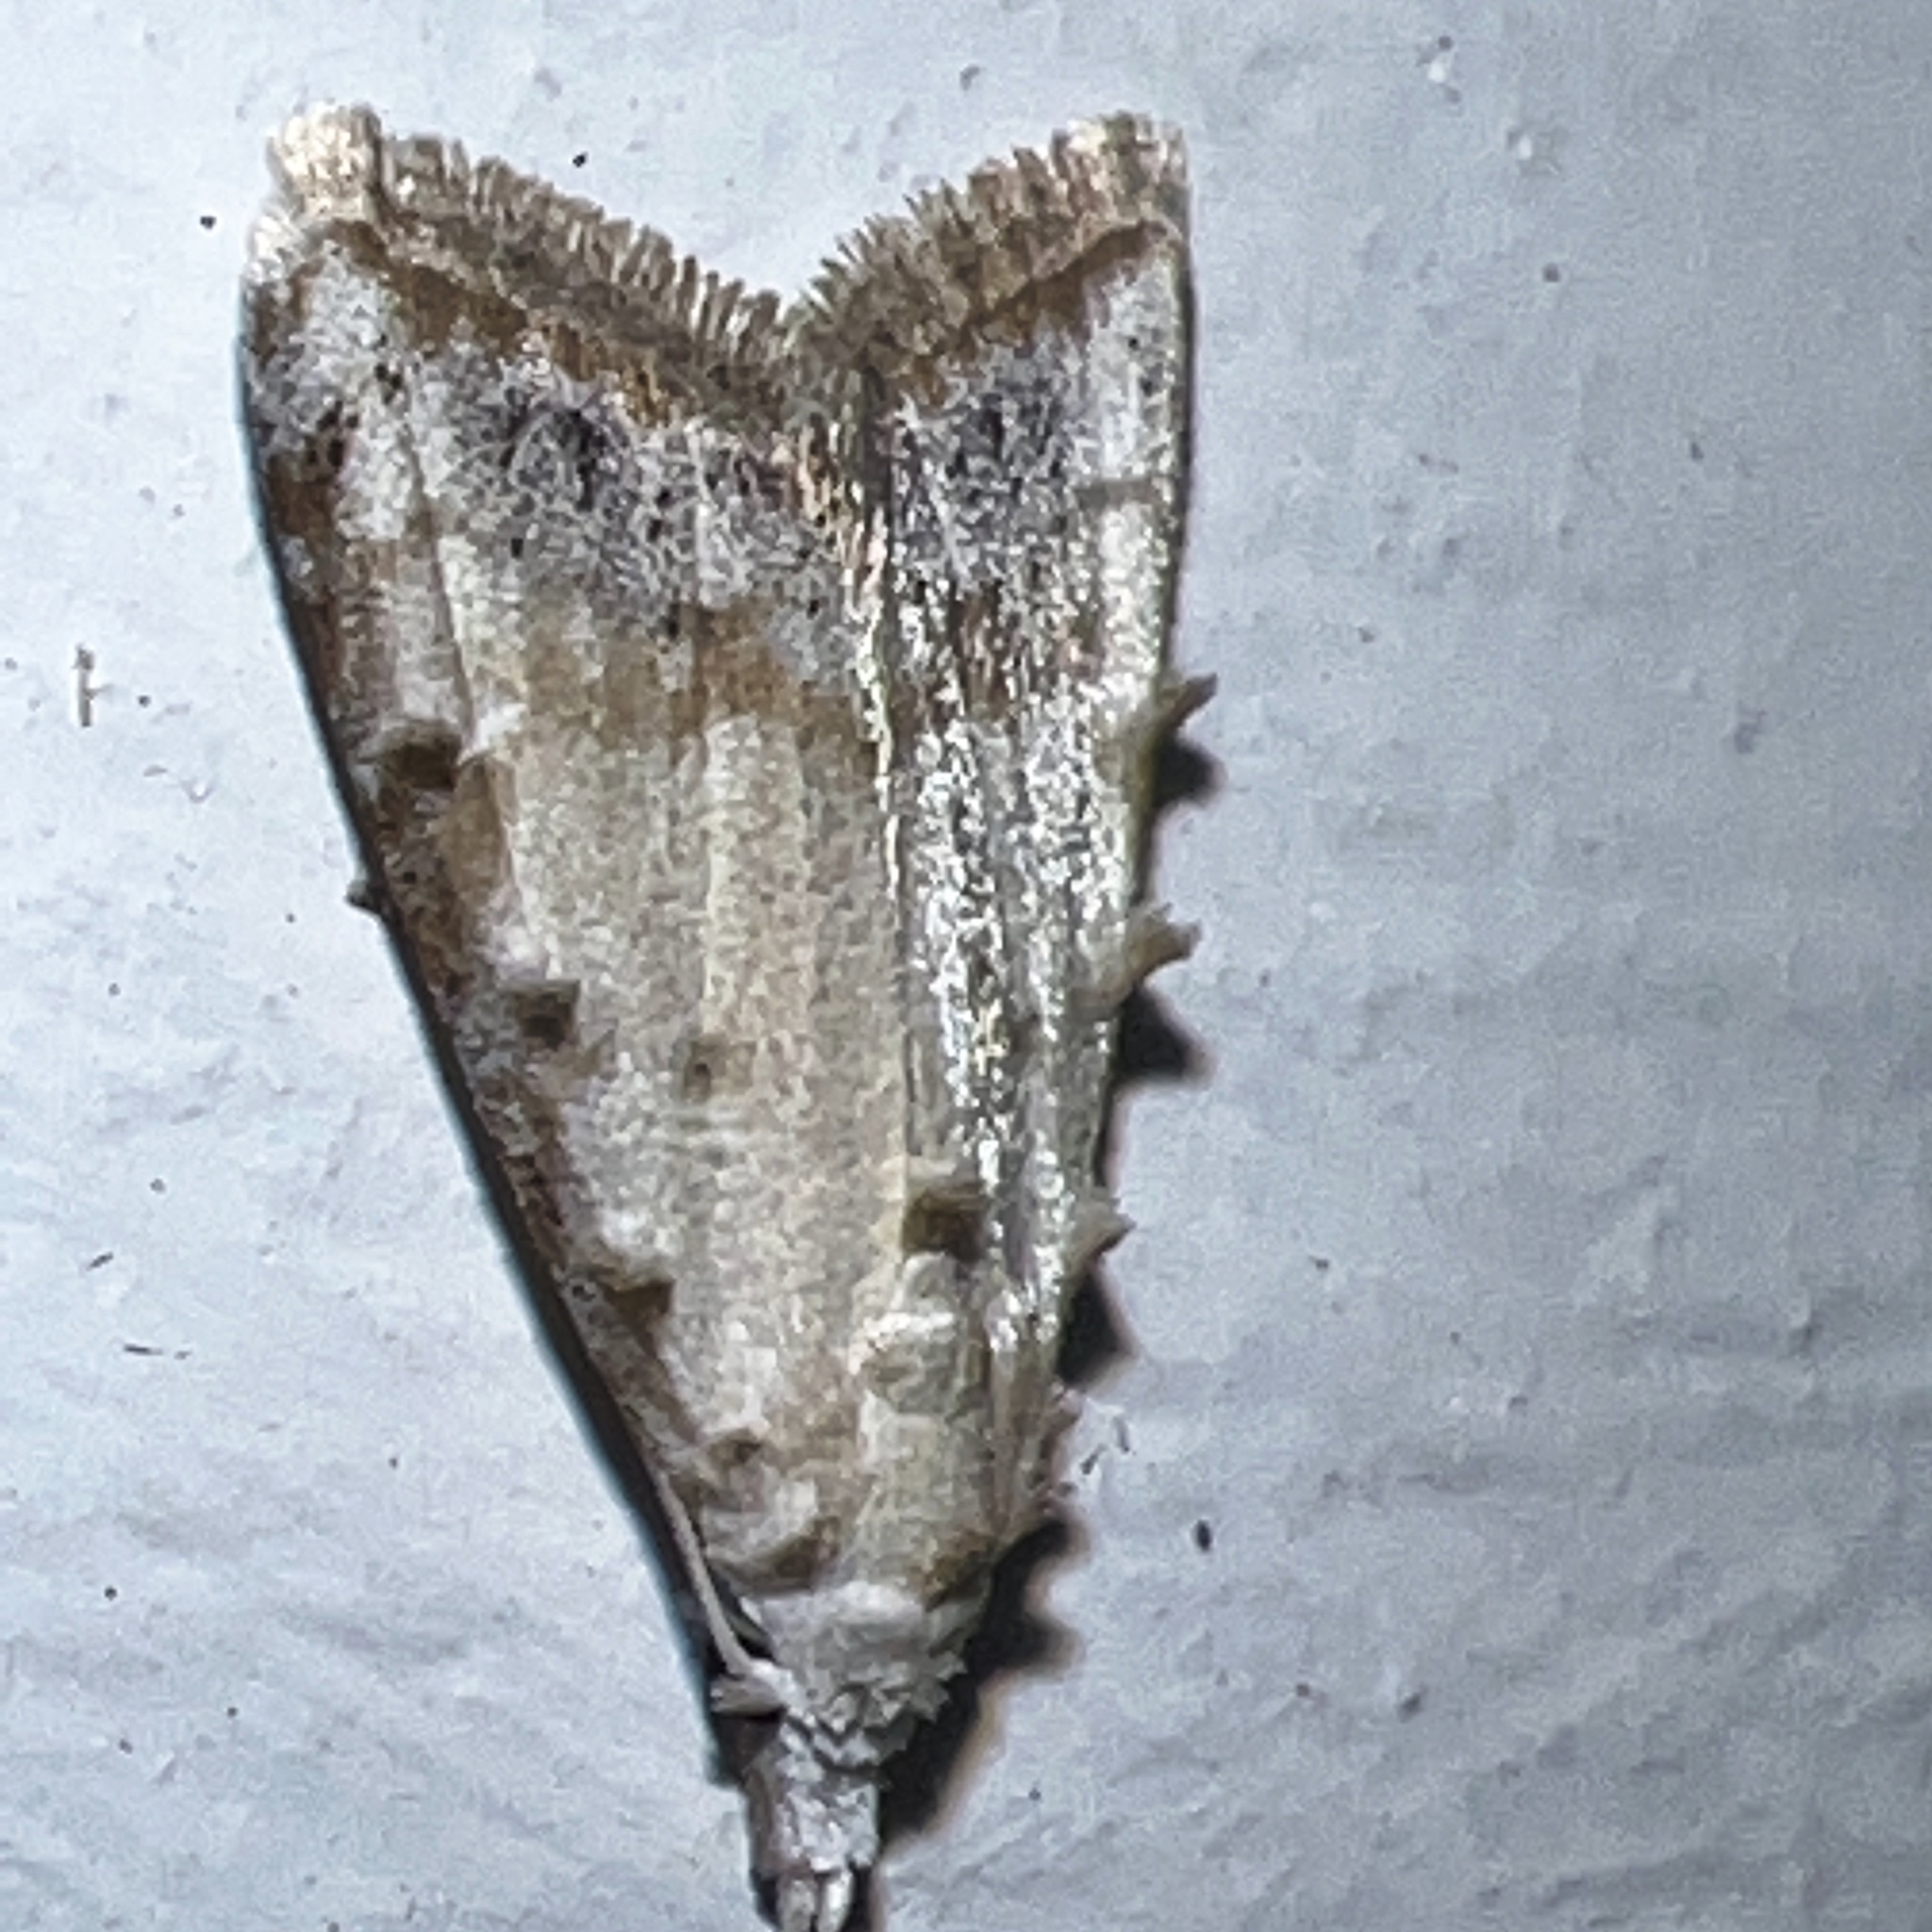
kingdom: Animalia
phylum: Arthropoda
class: Insecta
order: Lepidoptera
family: Nolidae
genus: Nola
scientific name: Nola cereella
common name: Sorghum webworm moth
